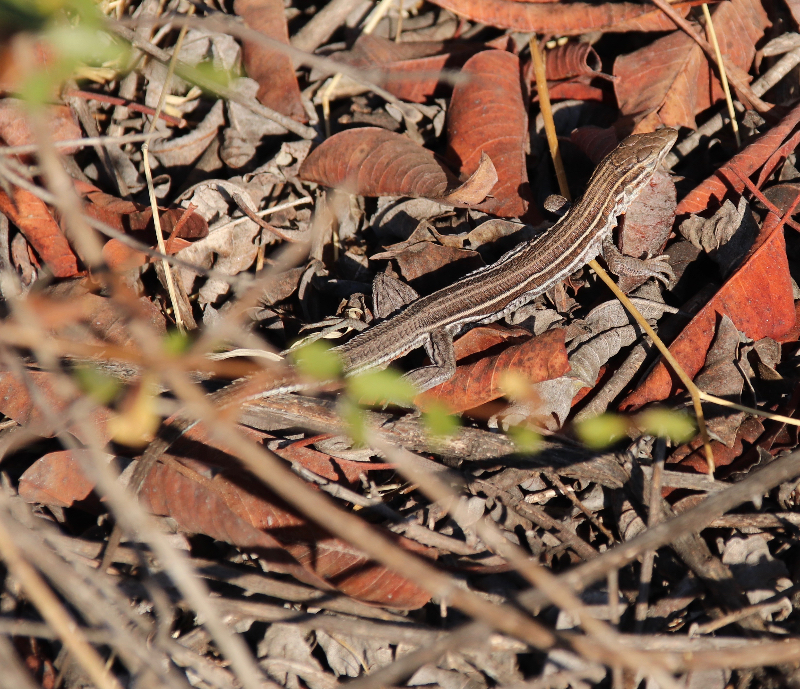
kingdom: Animalia
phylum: Chordata
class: Squamata
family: Teiidae
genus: Aspidoscelis
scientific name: Aspidoscelis hyperythrus
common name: Orange-throated race-runner
